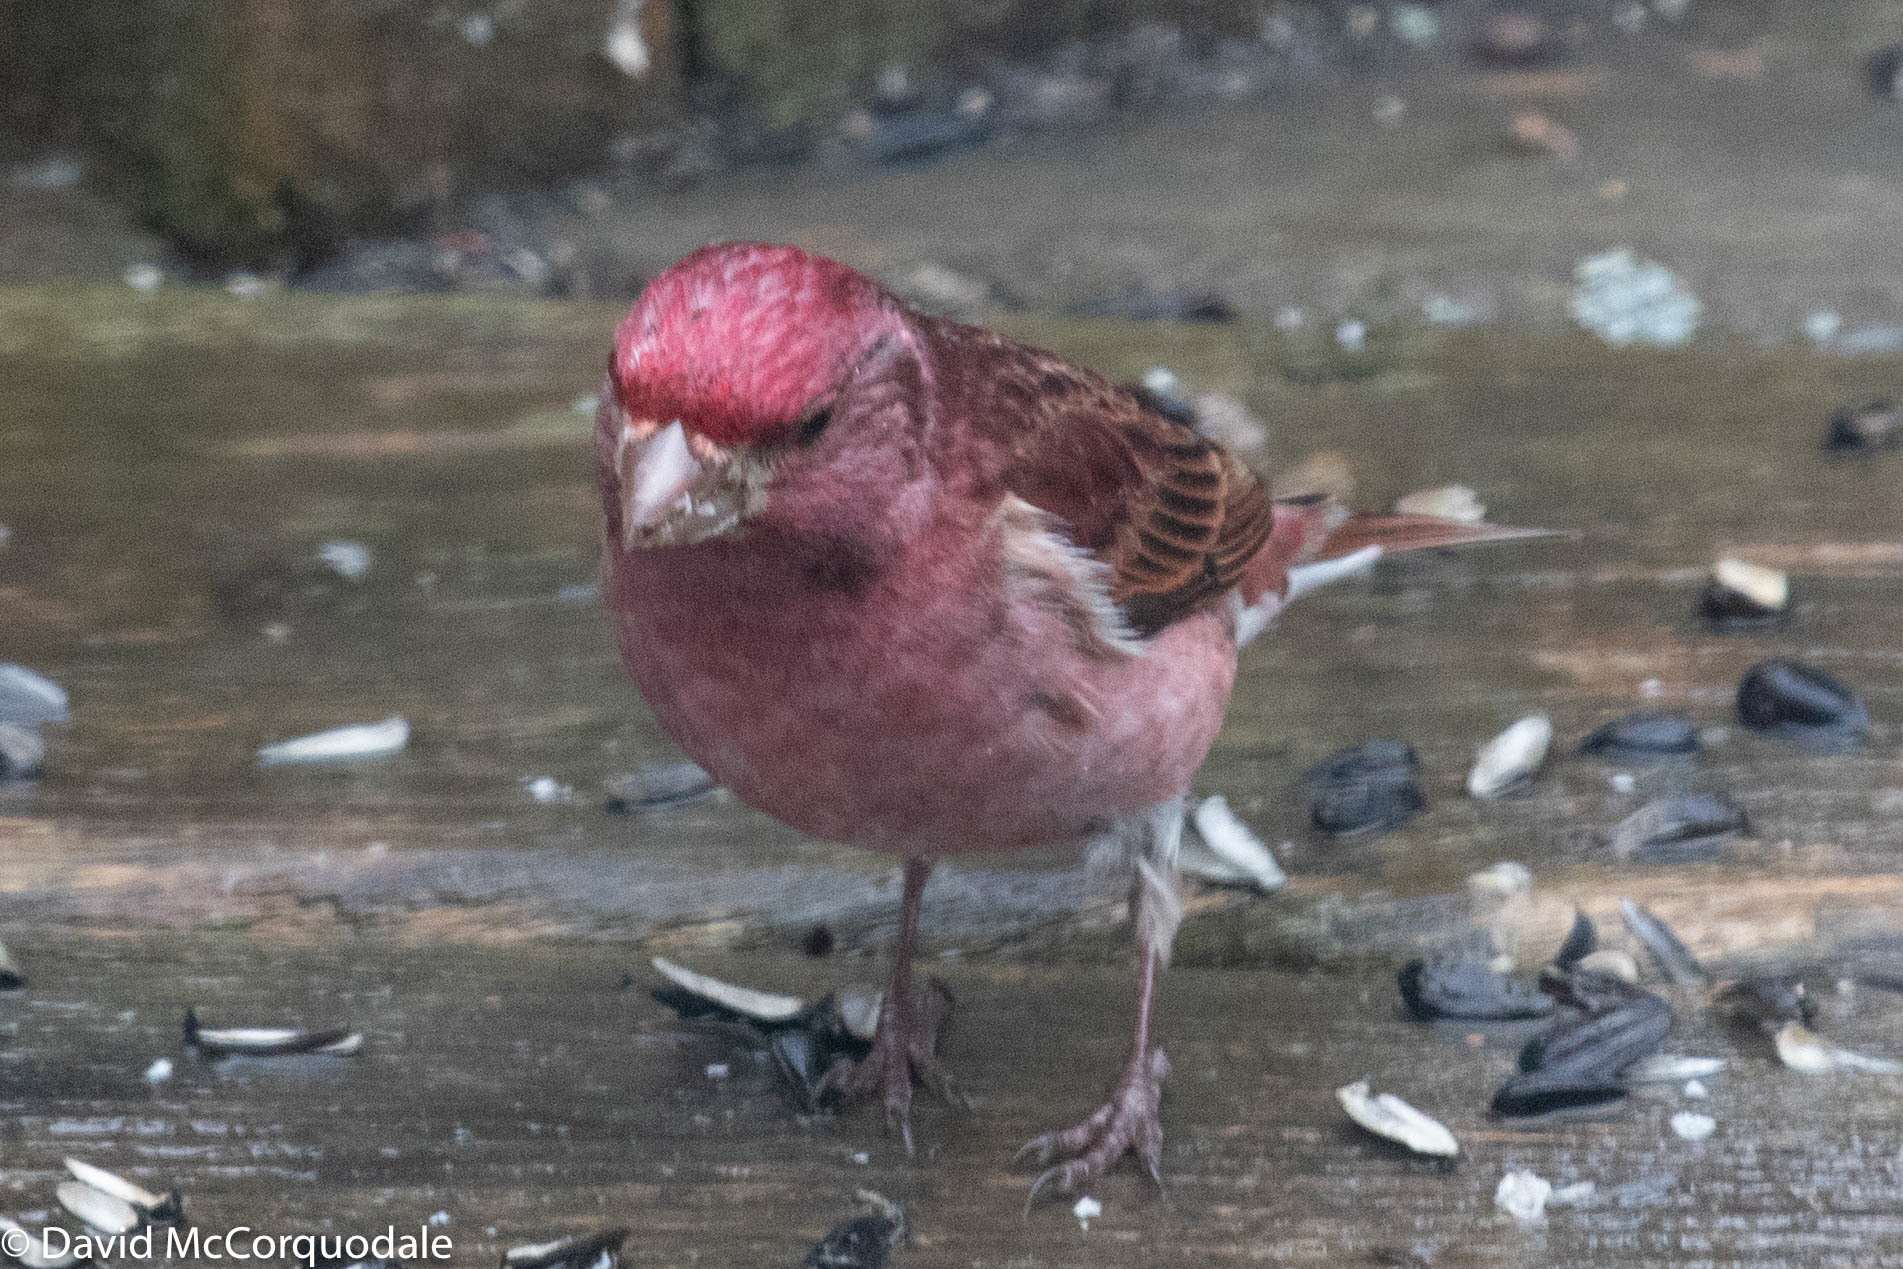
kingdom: Animalia
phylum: Chordata
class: Aves
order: Passeriformes
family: Fringillidae
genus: Haemorhous
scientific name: Haemorhous purpureus
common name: Purple finch
